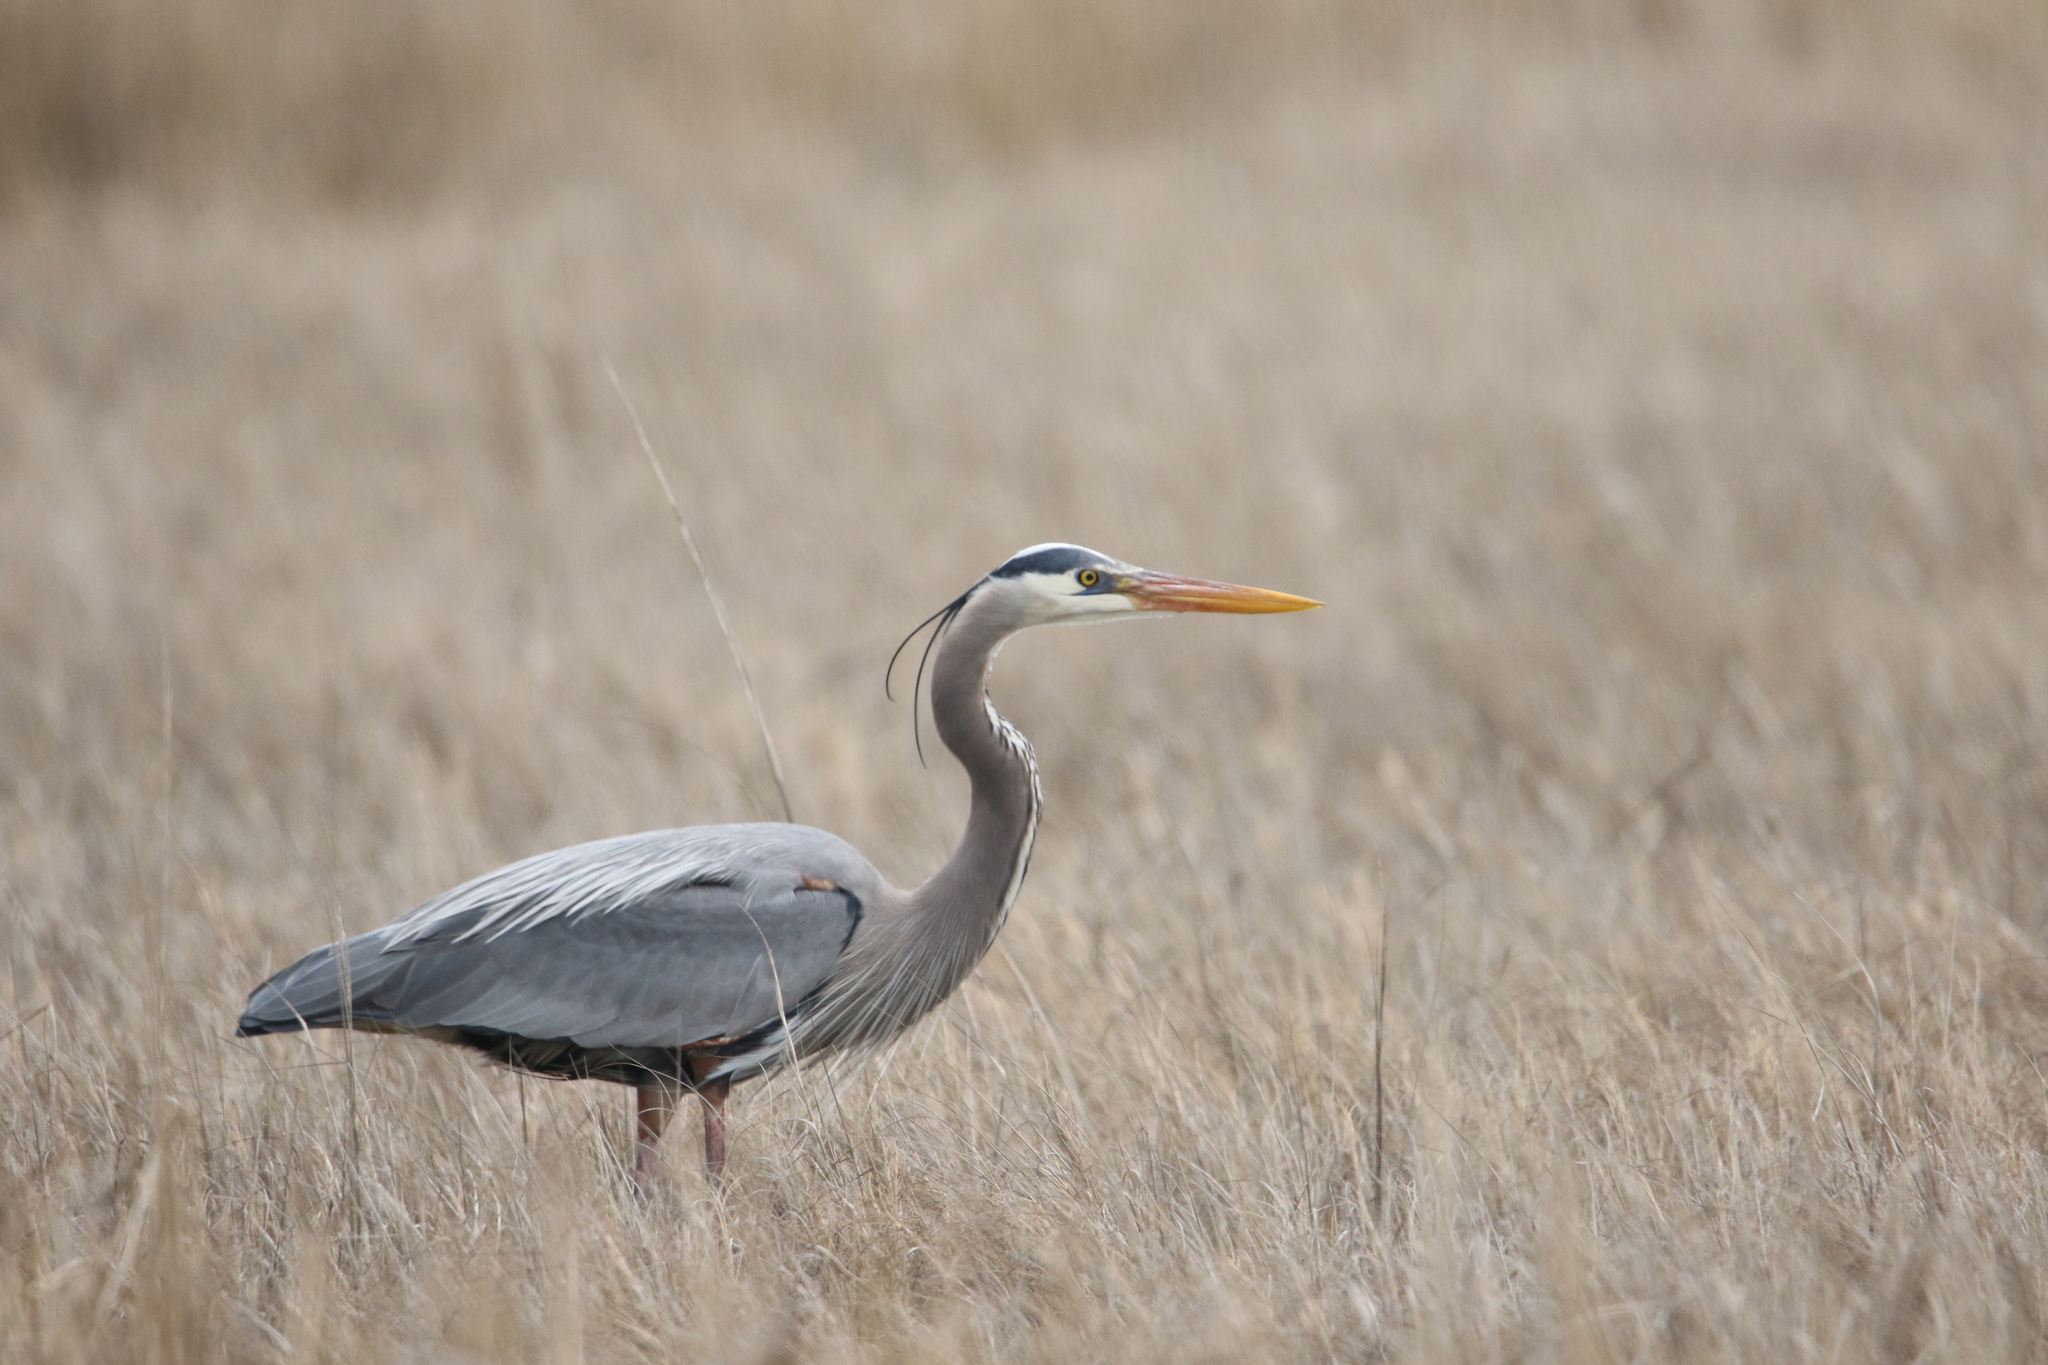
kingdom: Animalia
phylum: Chordata
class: Aves
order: Pelecaniformes
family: Ardeidae
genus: Ardea
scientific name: Ardea herodias
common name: Great blue heron
